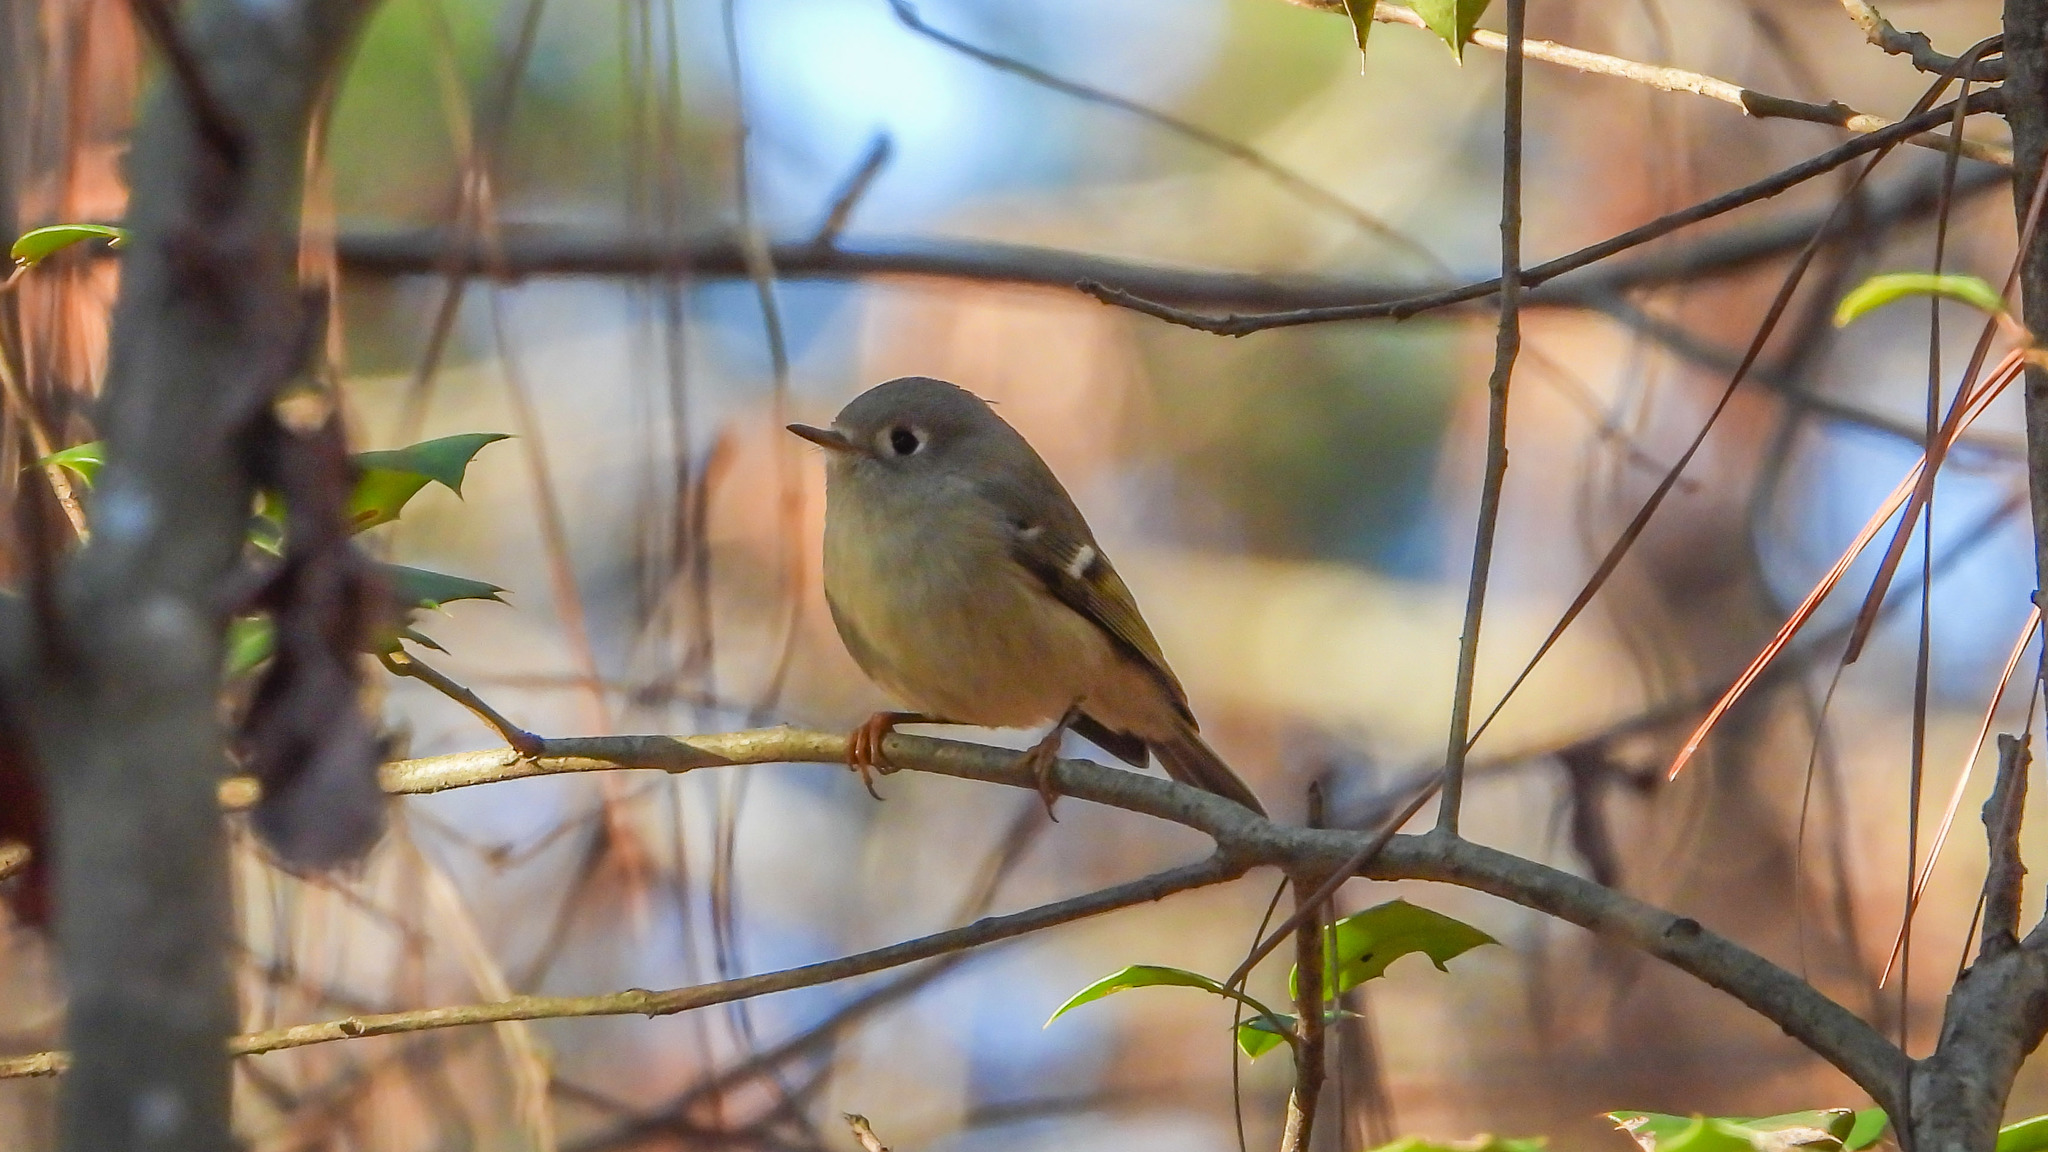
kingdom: Animalia
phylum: Chordata
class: Aves
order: Passeriformes
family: Regulidae
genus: Regulus
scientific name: Regulus calendula
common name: Ruby-crowned kinglet
